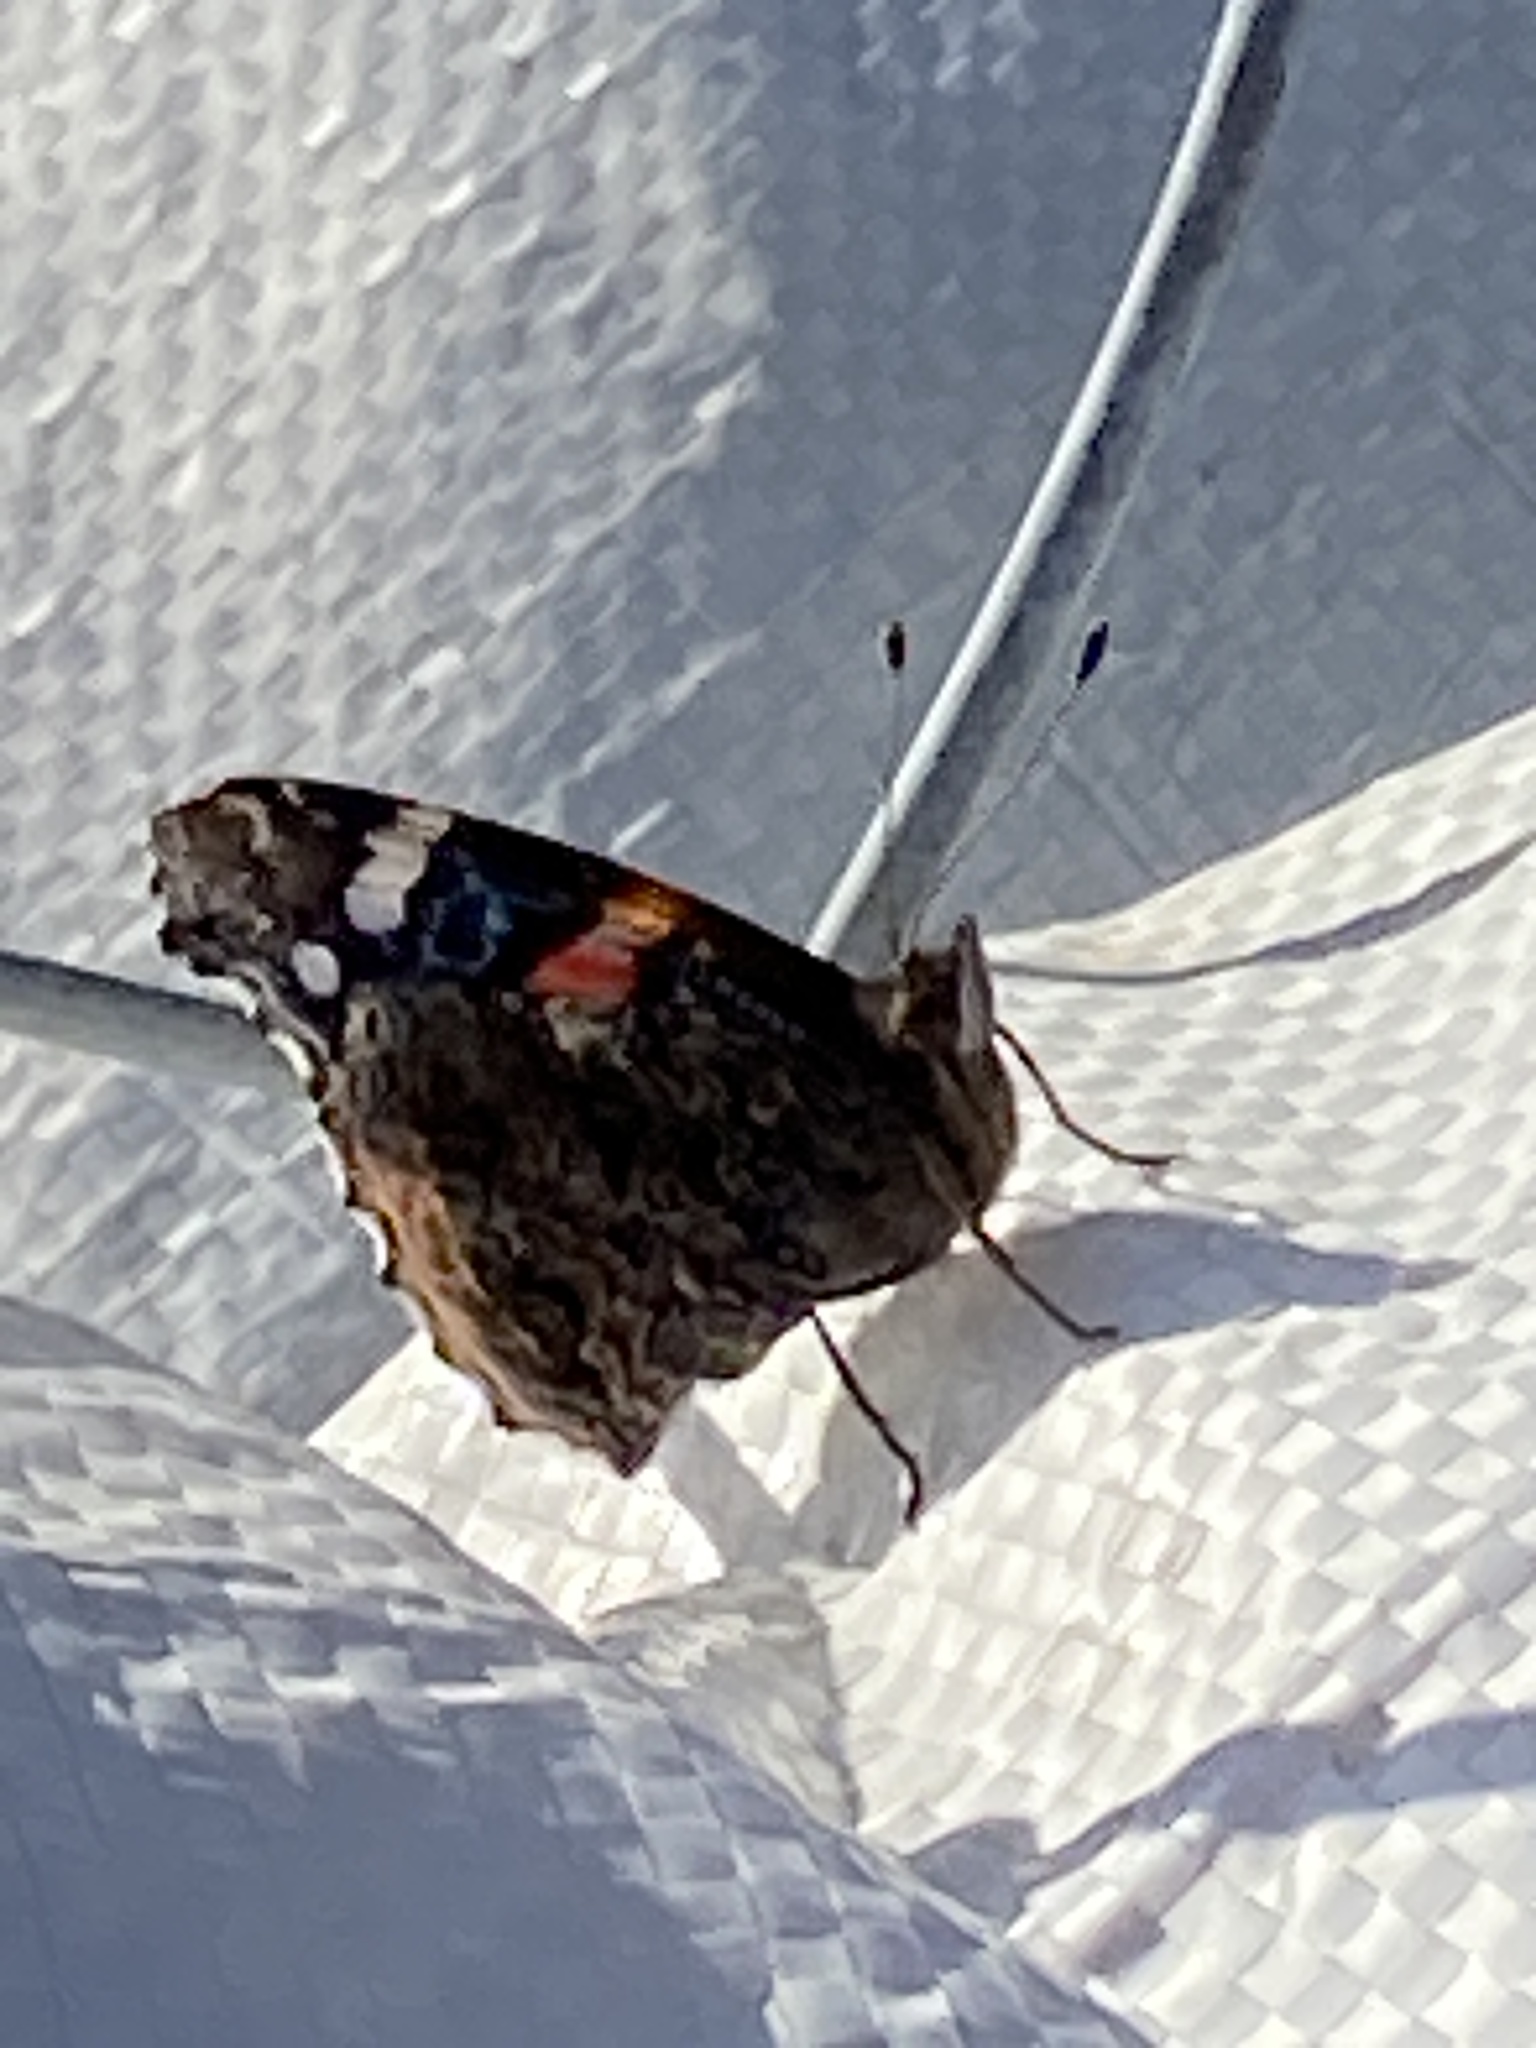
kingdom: Animalia
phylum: Arthropoda
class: Insecta
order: Lepidoptera
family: Nymphalidae
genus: Vanessa
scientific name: Vanessa atalanta
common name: Red admiral
